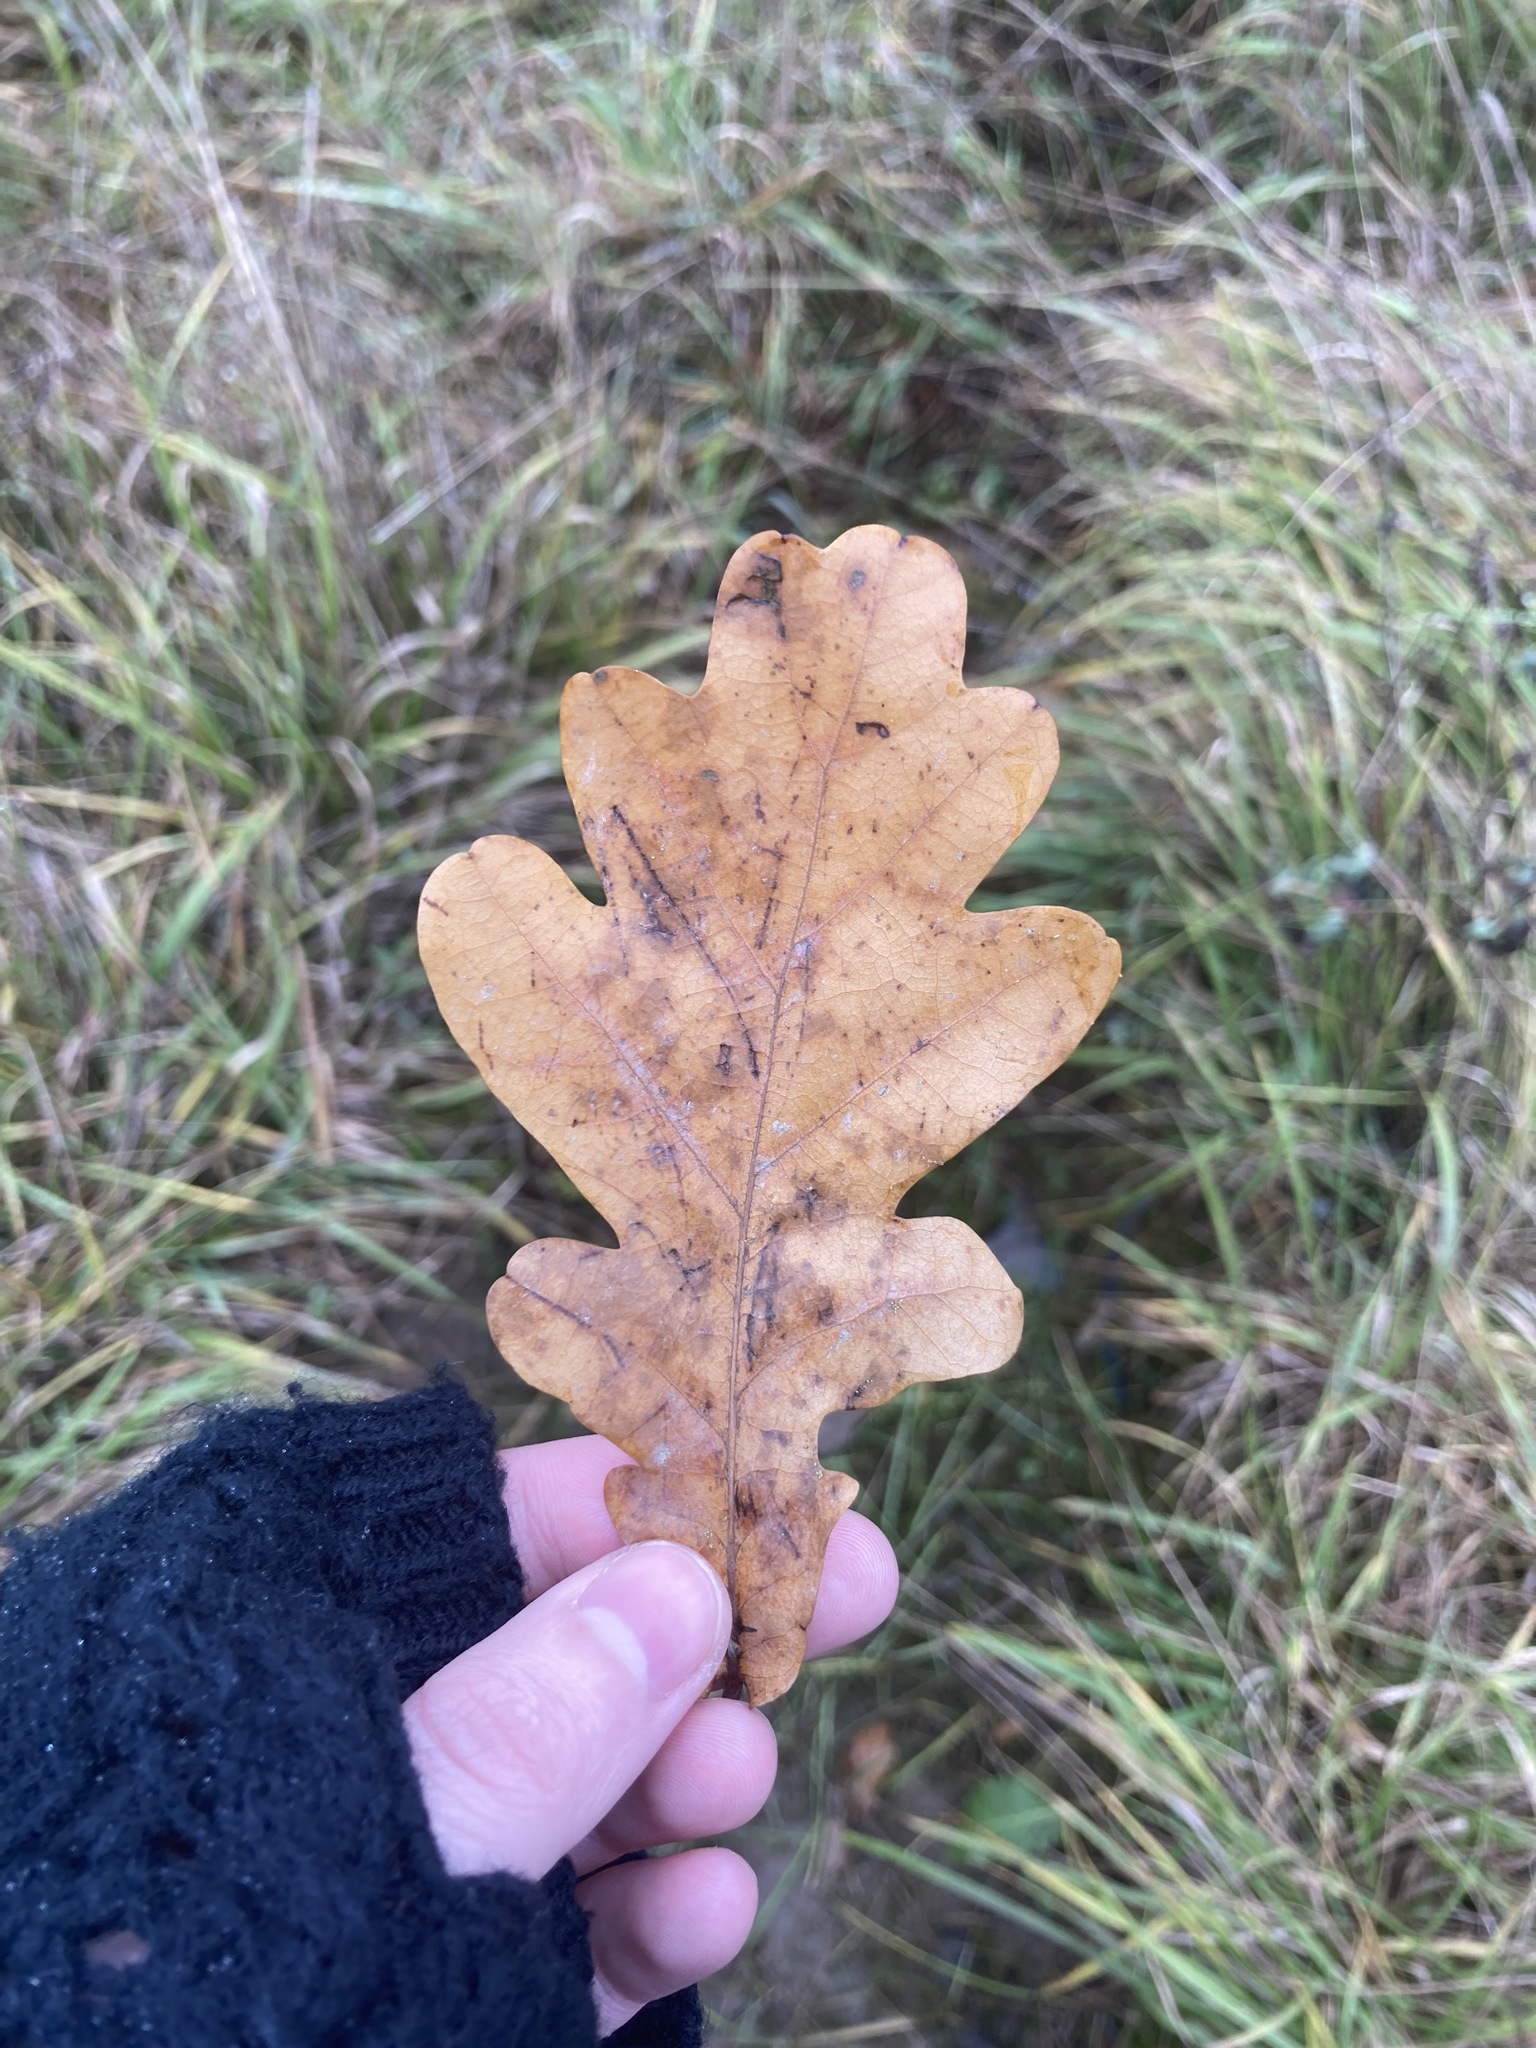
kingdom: Plantae
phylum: Tracheophyta
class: Magnoliopsida
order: Fagales
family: Fagaceae
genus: Quercus
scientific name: Quercus robur
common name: Pedunculate oak
